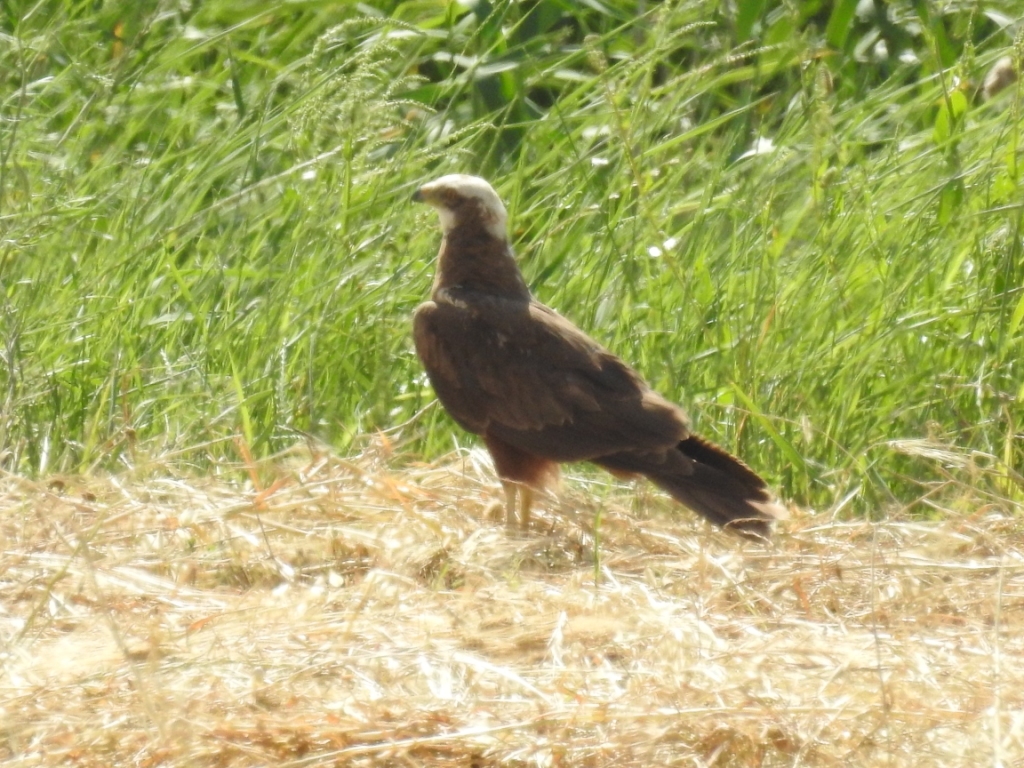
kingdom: Animalia
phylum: Chordata
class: Aves
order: Accipitriformes
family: Accipitridae
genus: Circus
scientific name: Circus aeruginosus
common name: Western marsh harrier
